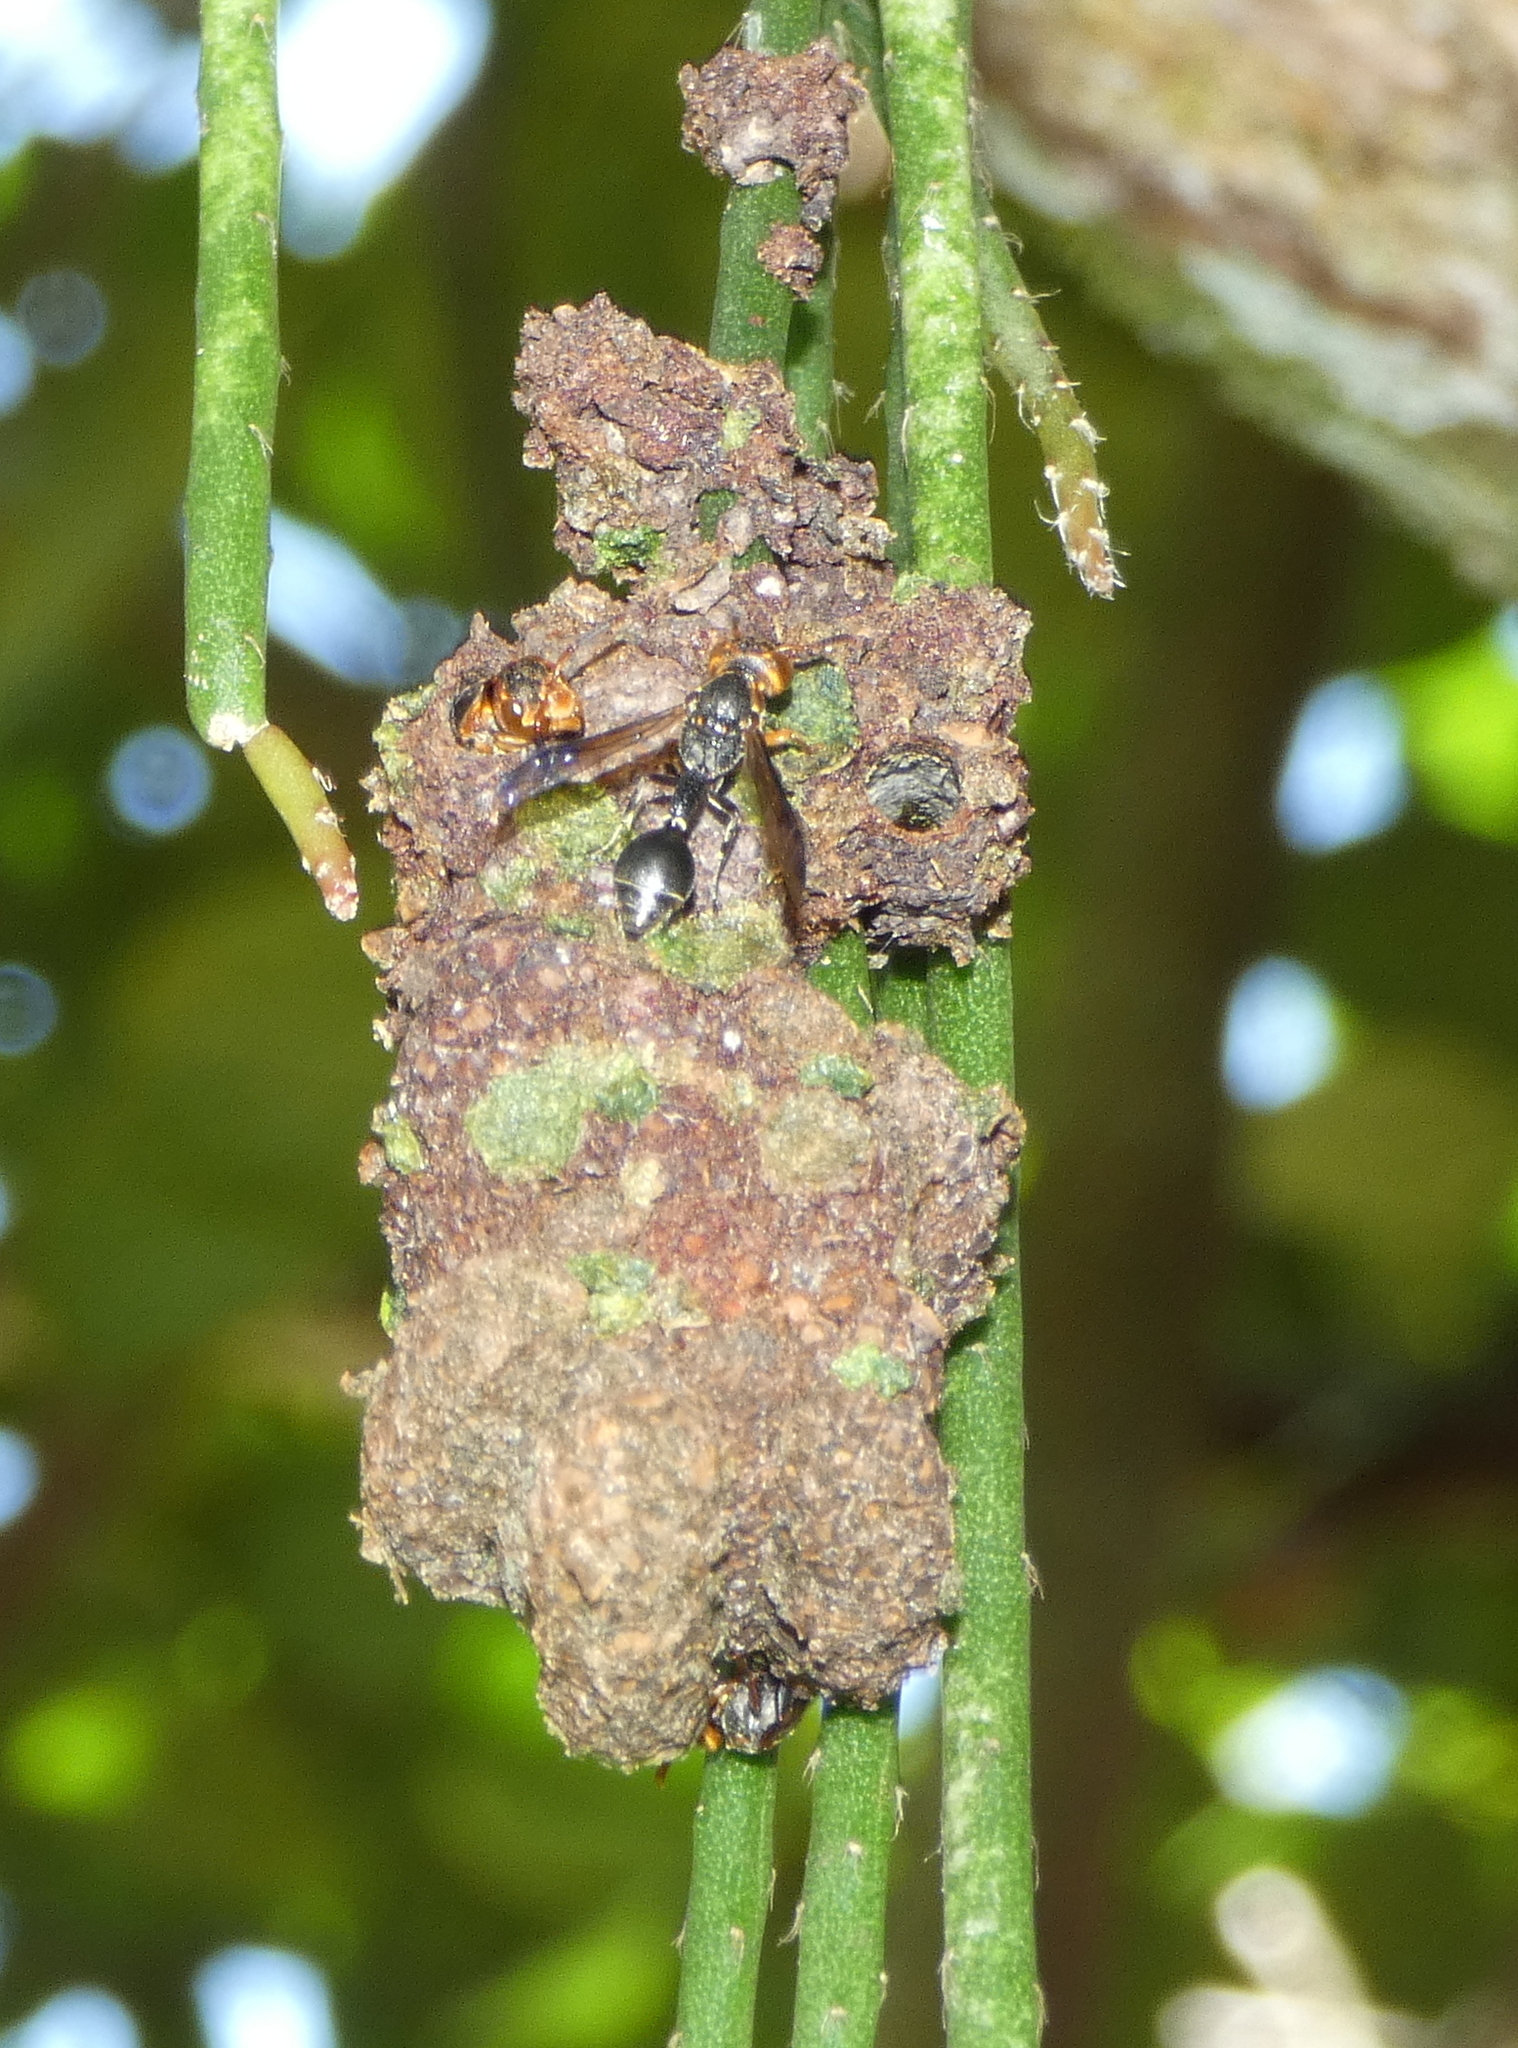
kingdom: Animalia
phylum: Arthropoda
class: Insecta
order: Hymenoptera
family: Eumenidae
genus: Zethus
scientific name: Zethus miniatus
